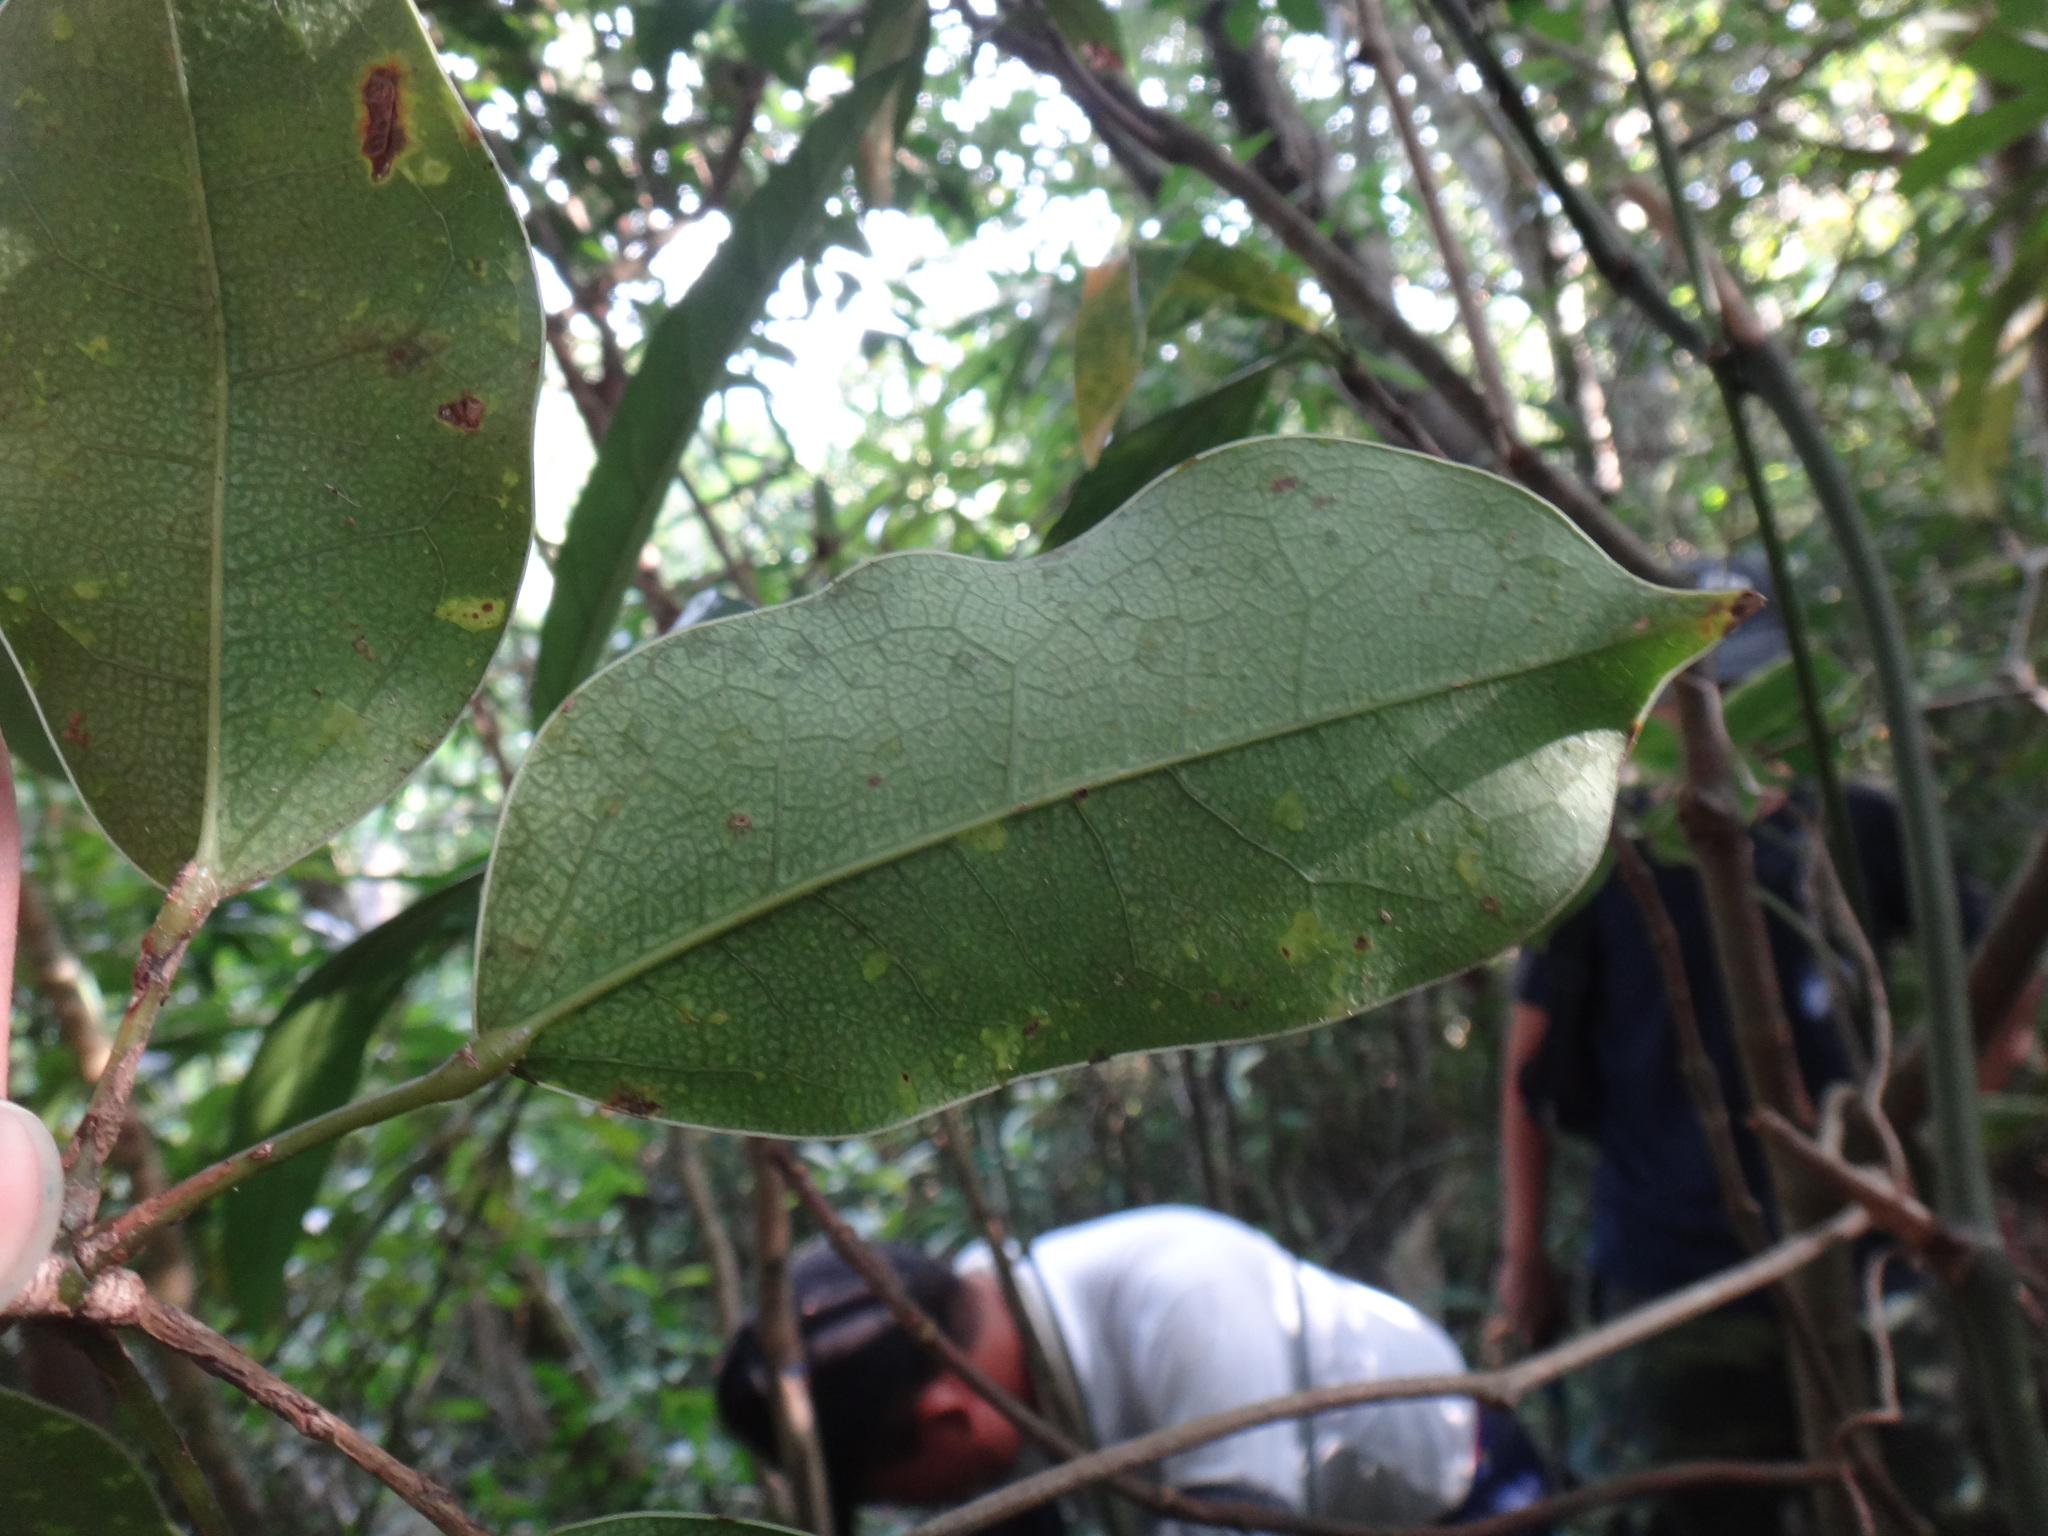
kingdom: Plantae
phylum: Tracheophyta
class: Magnoliopsida
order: Ranunculales
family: Lardizabalaceae
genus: Stauntonia
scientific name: Stauntonia obovatifoliola
